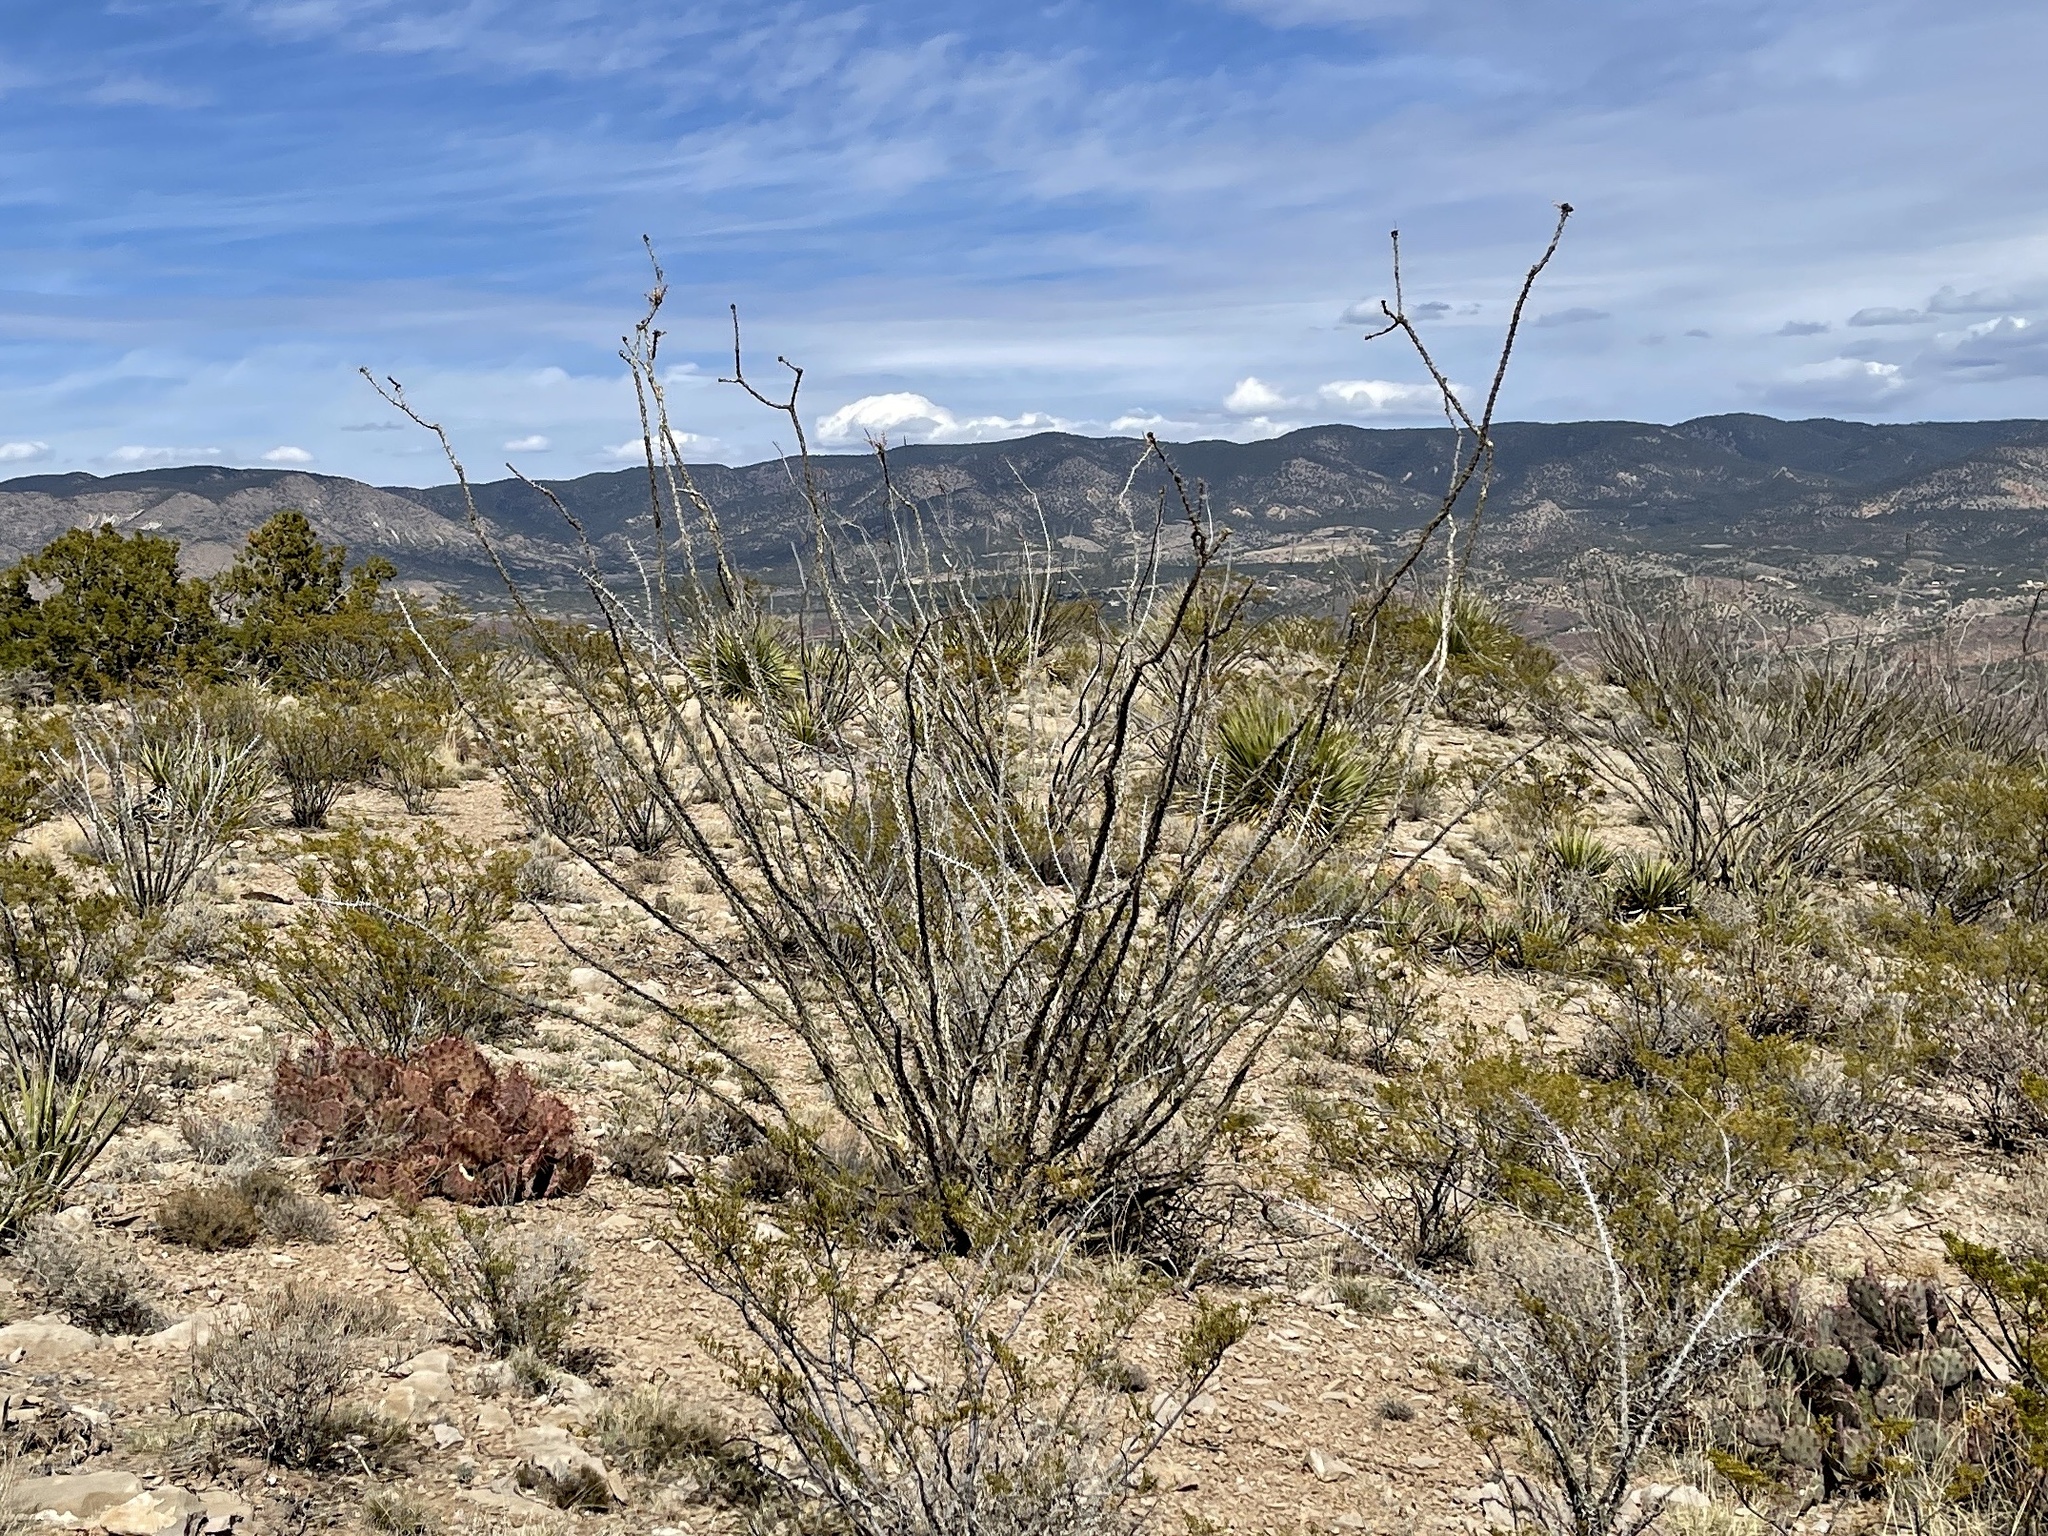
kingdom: Plantae
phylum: Tracheophyta
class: Magnoliopsida
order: Ericales
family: Fouquieriaceae
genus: Fouquieria
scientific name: Fouquieria splendens
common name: Vine-cactus
